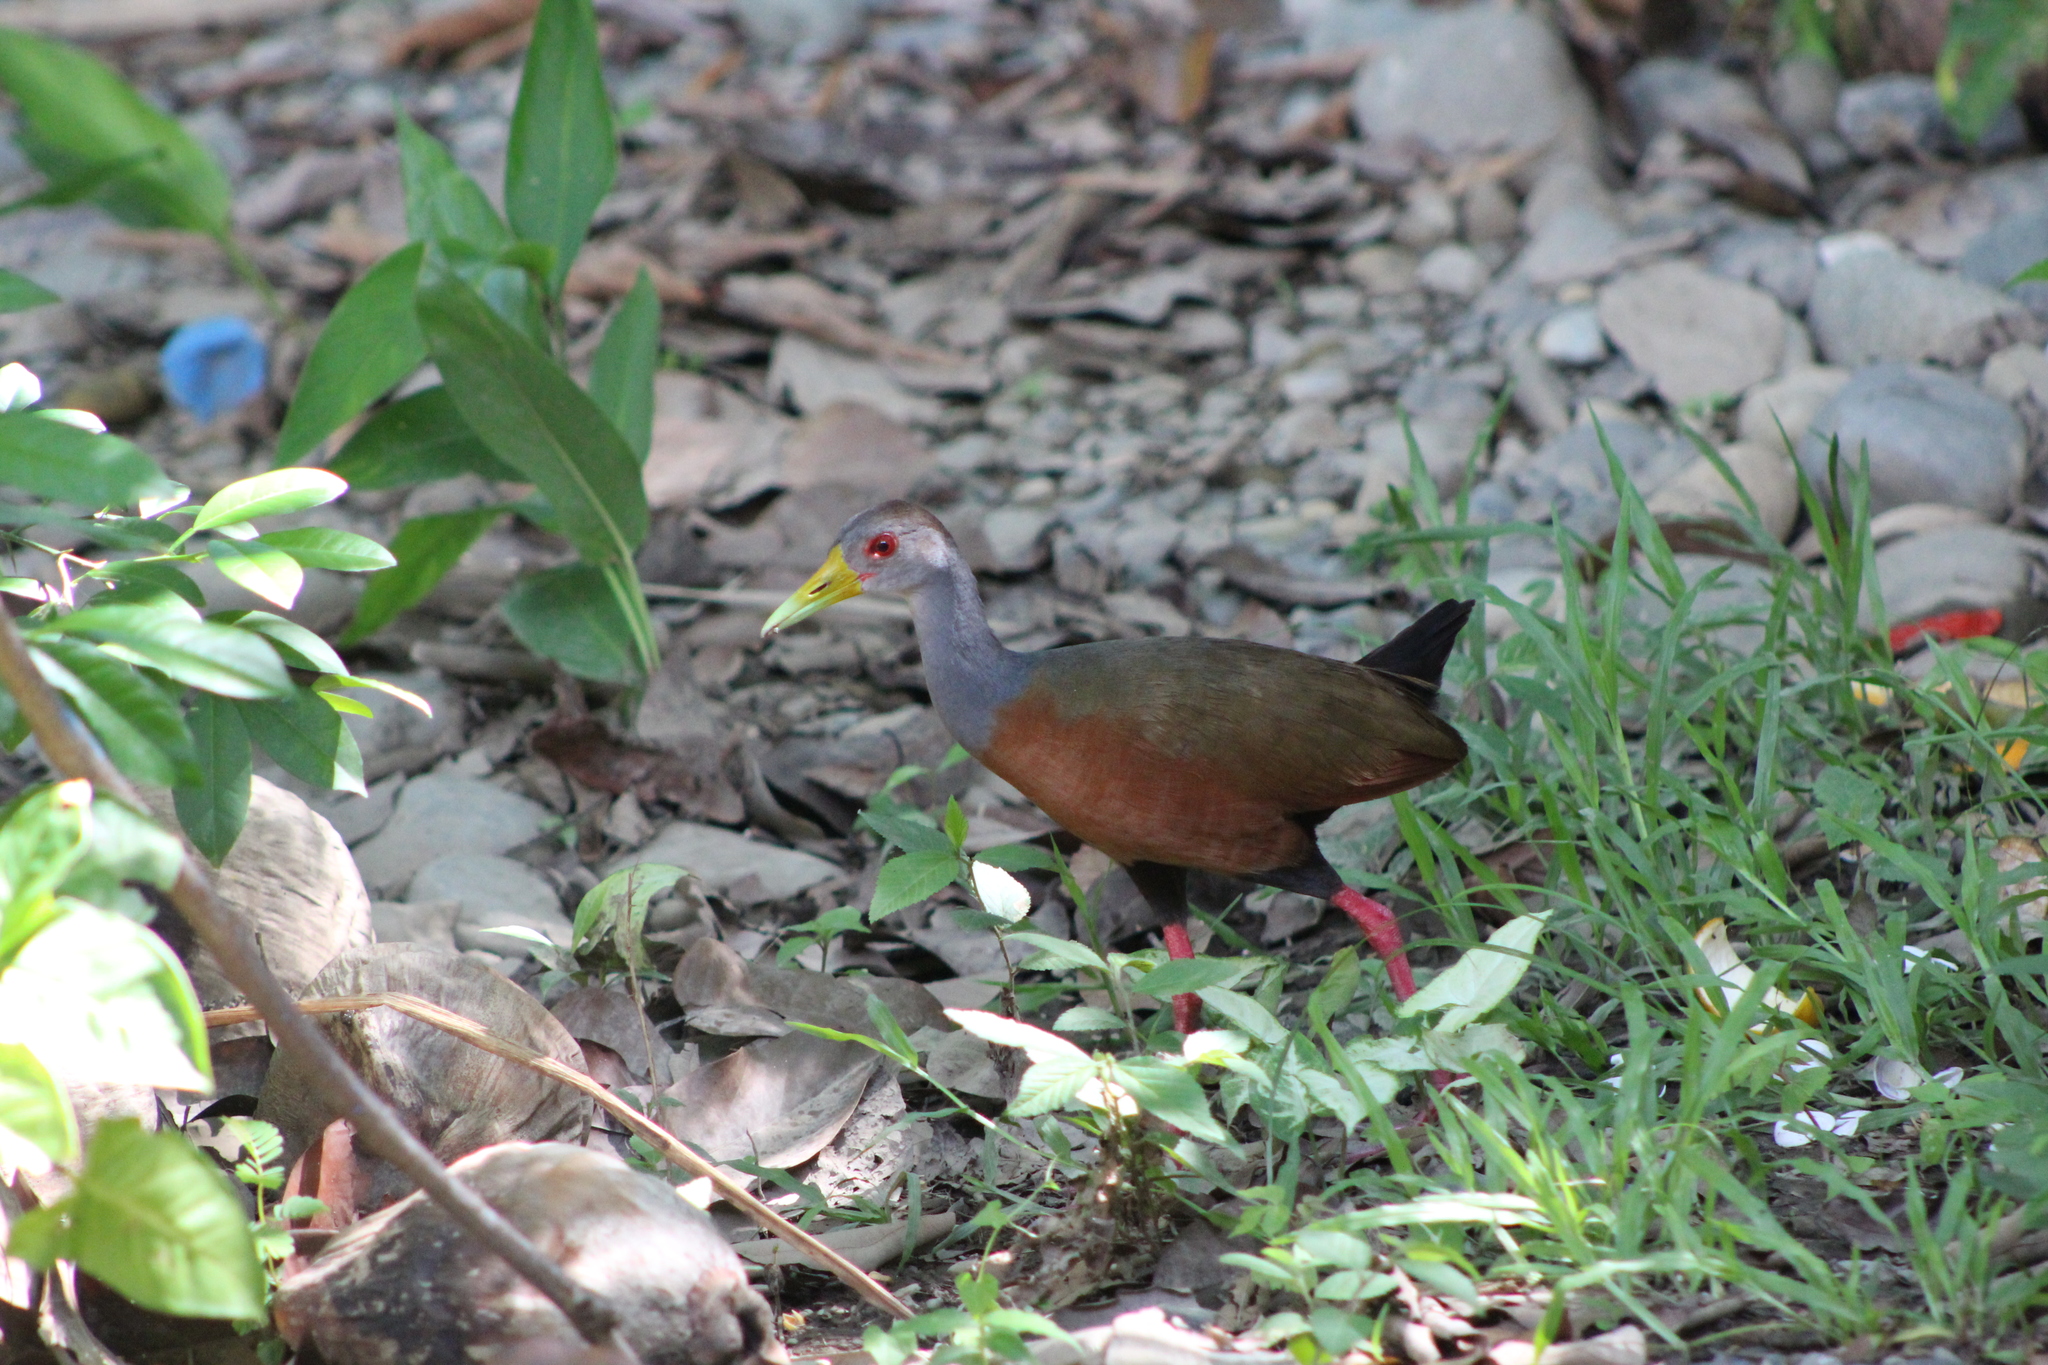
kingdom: Animalia
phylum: Chordata
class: Aves
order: Gruiformes
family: Rallidae
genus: Aramides
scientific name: Aramides cajanea
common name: Gray-necked wood-rail
